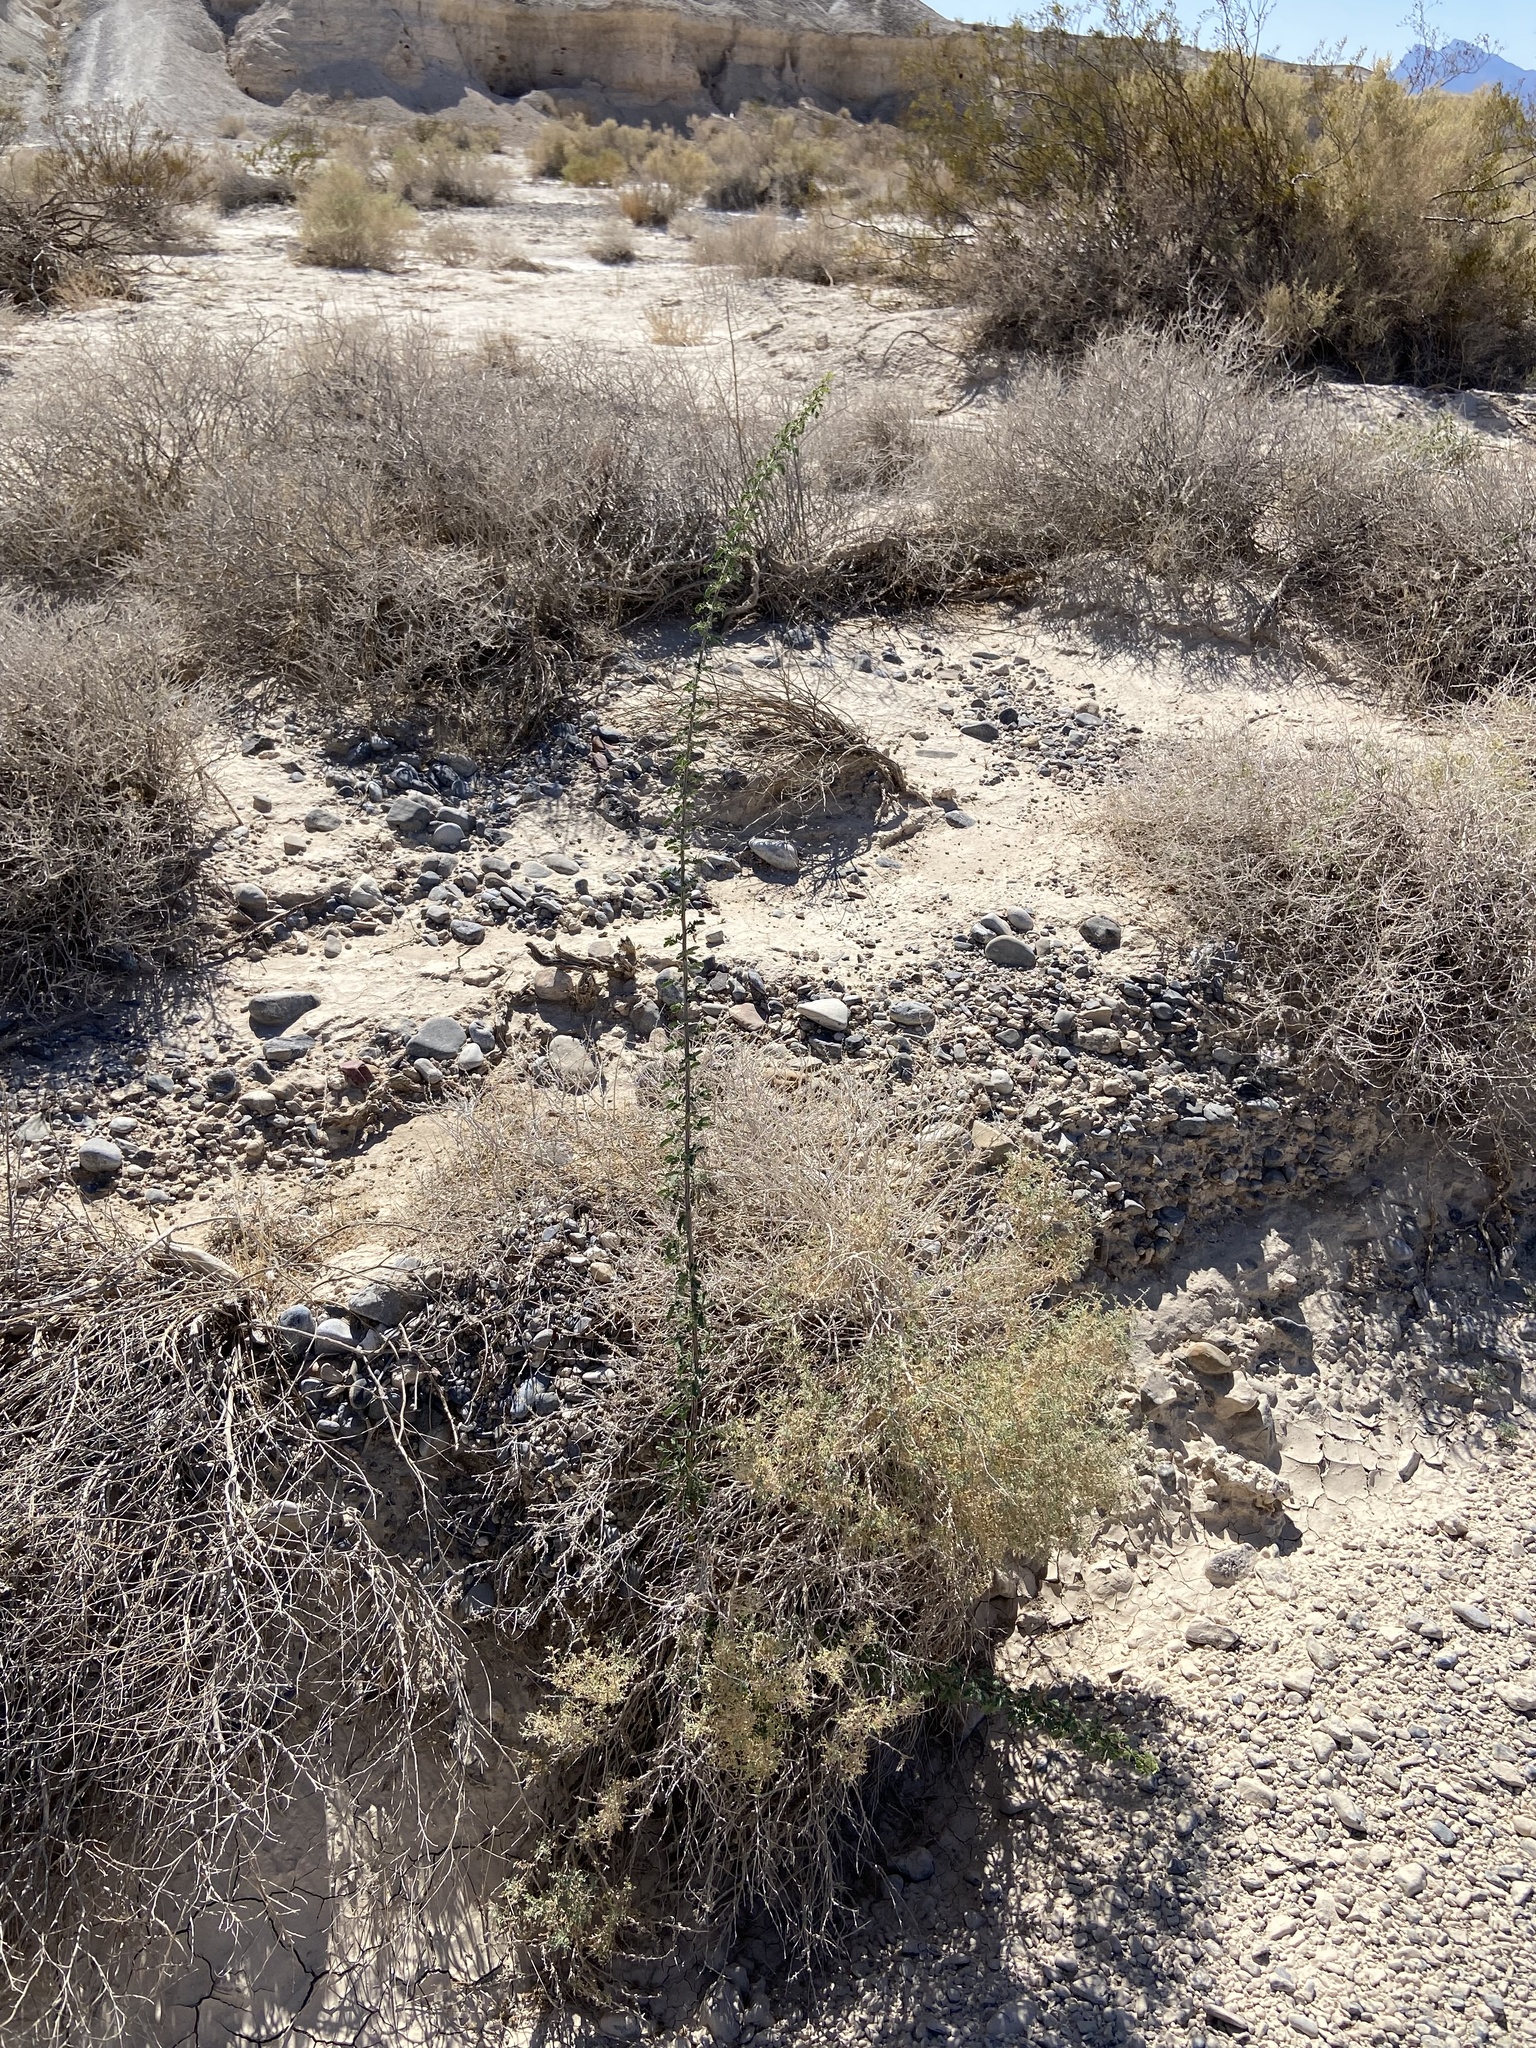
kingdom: Plantae
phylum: Tracheophyta
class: Magnoliopsida
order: Fabales
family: Fabaceae
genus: Senegalia
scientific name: Senegalia greggii
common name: Texas-mimosa
